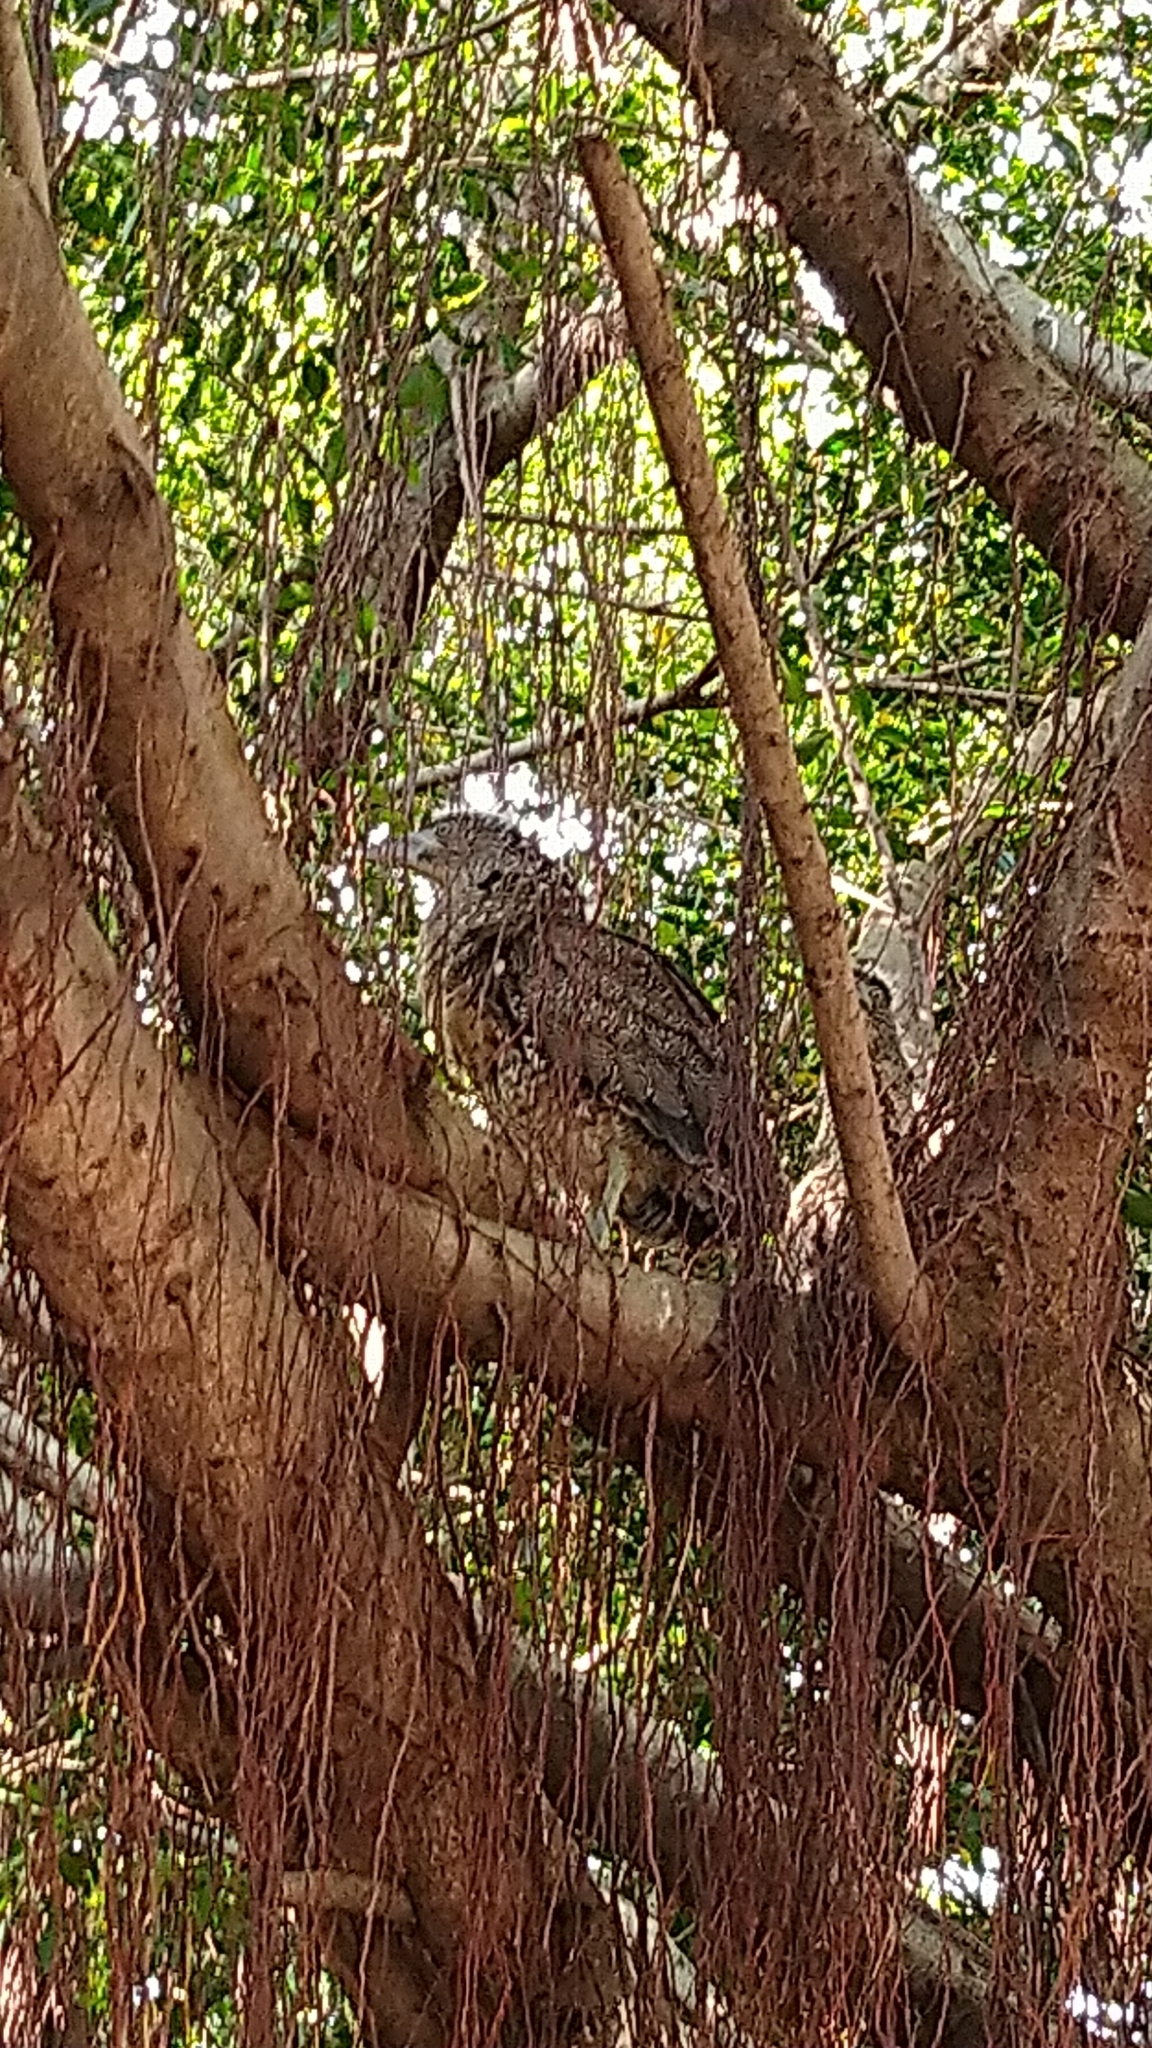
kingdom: Animalia
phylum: Chordata
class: Aves
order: Pelecaniformes
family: Ardeidae
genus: Gorsachius
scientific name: Gorsachius melanolophus
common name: Malayan night heron
